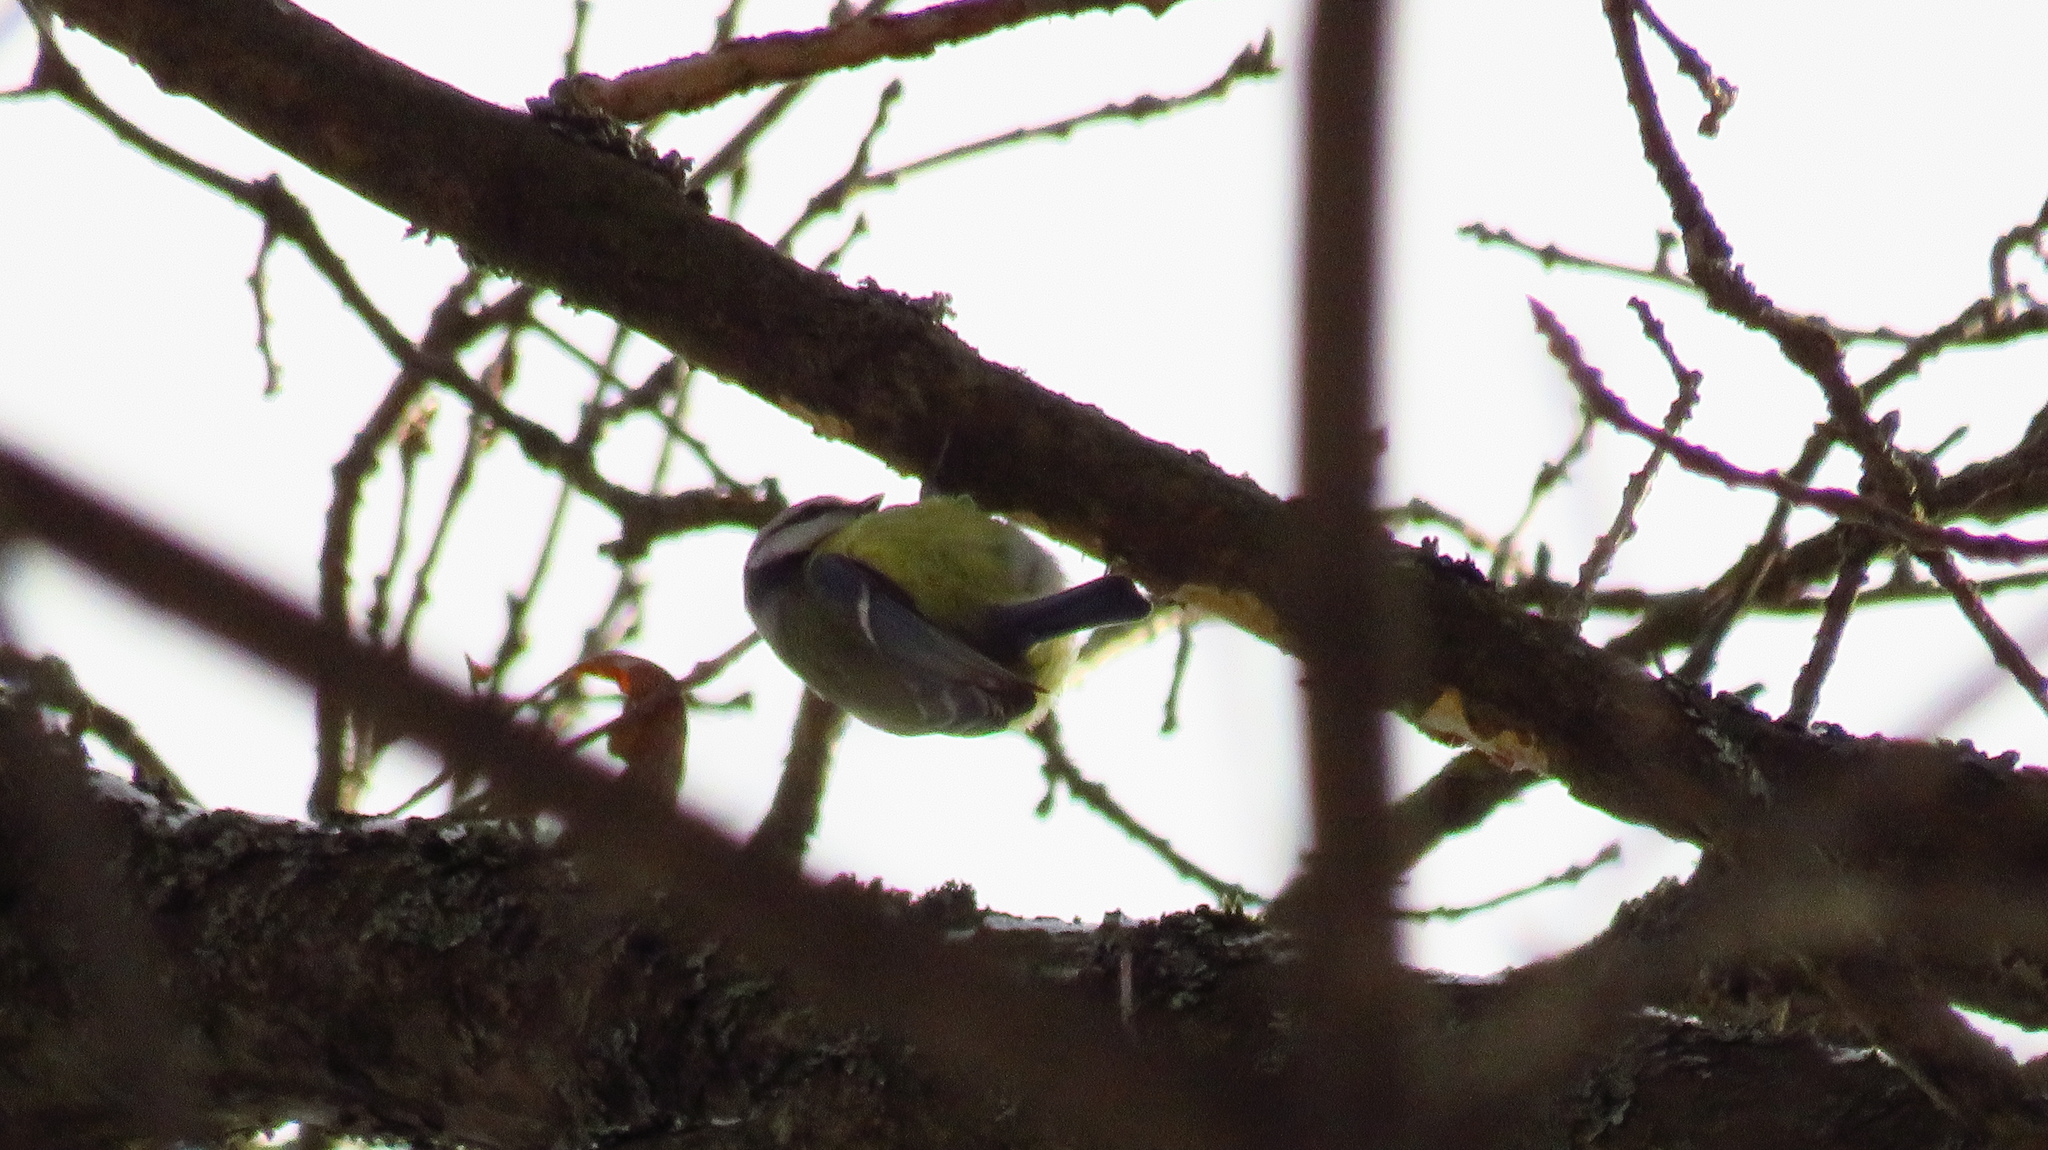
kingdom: Animalia
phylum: Chordata
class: Aves
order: Passeriformes
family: Paridae
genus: Cyanistes
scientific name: Cyanistes caeruleus
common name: Eurasian blue tit
